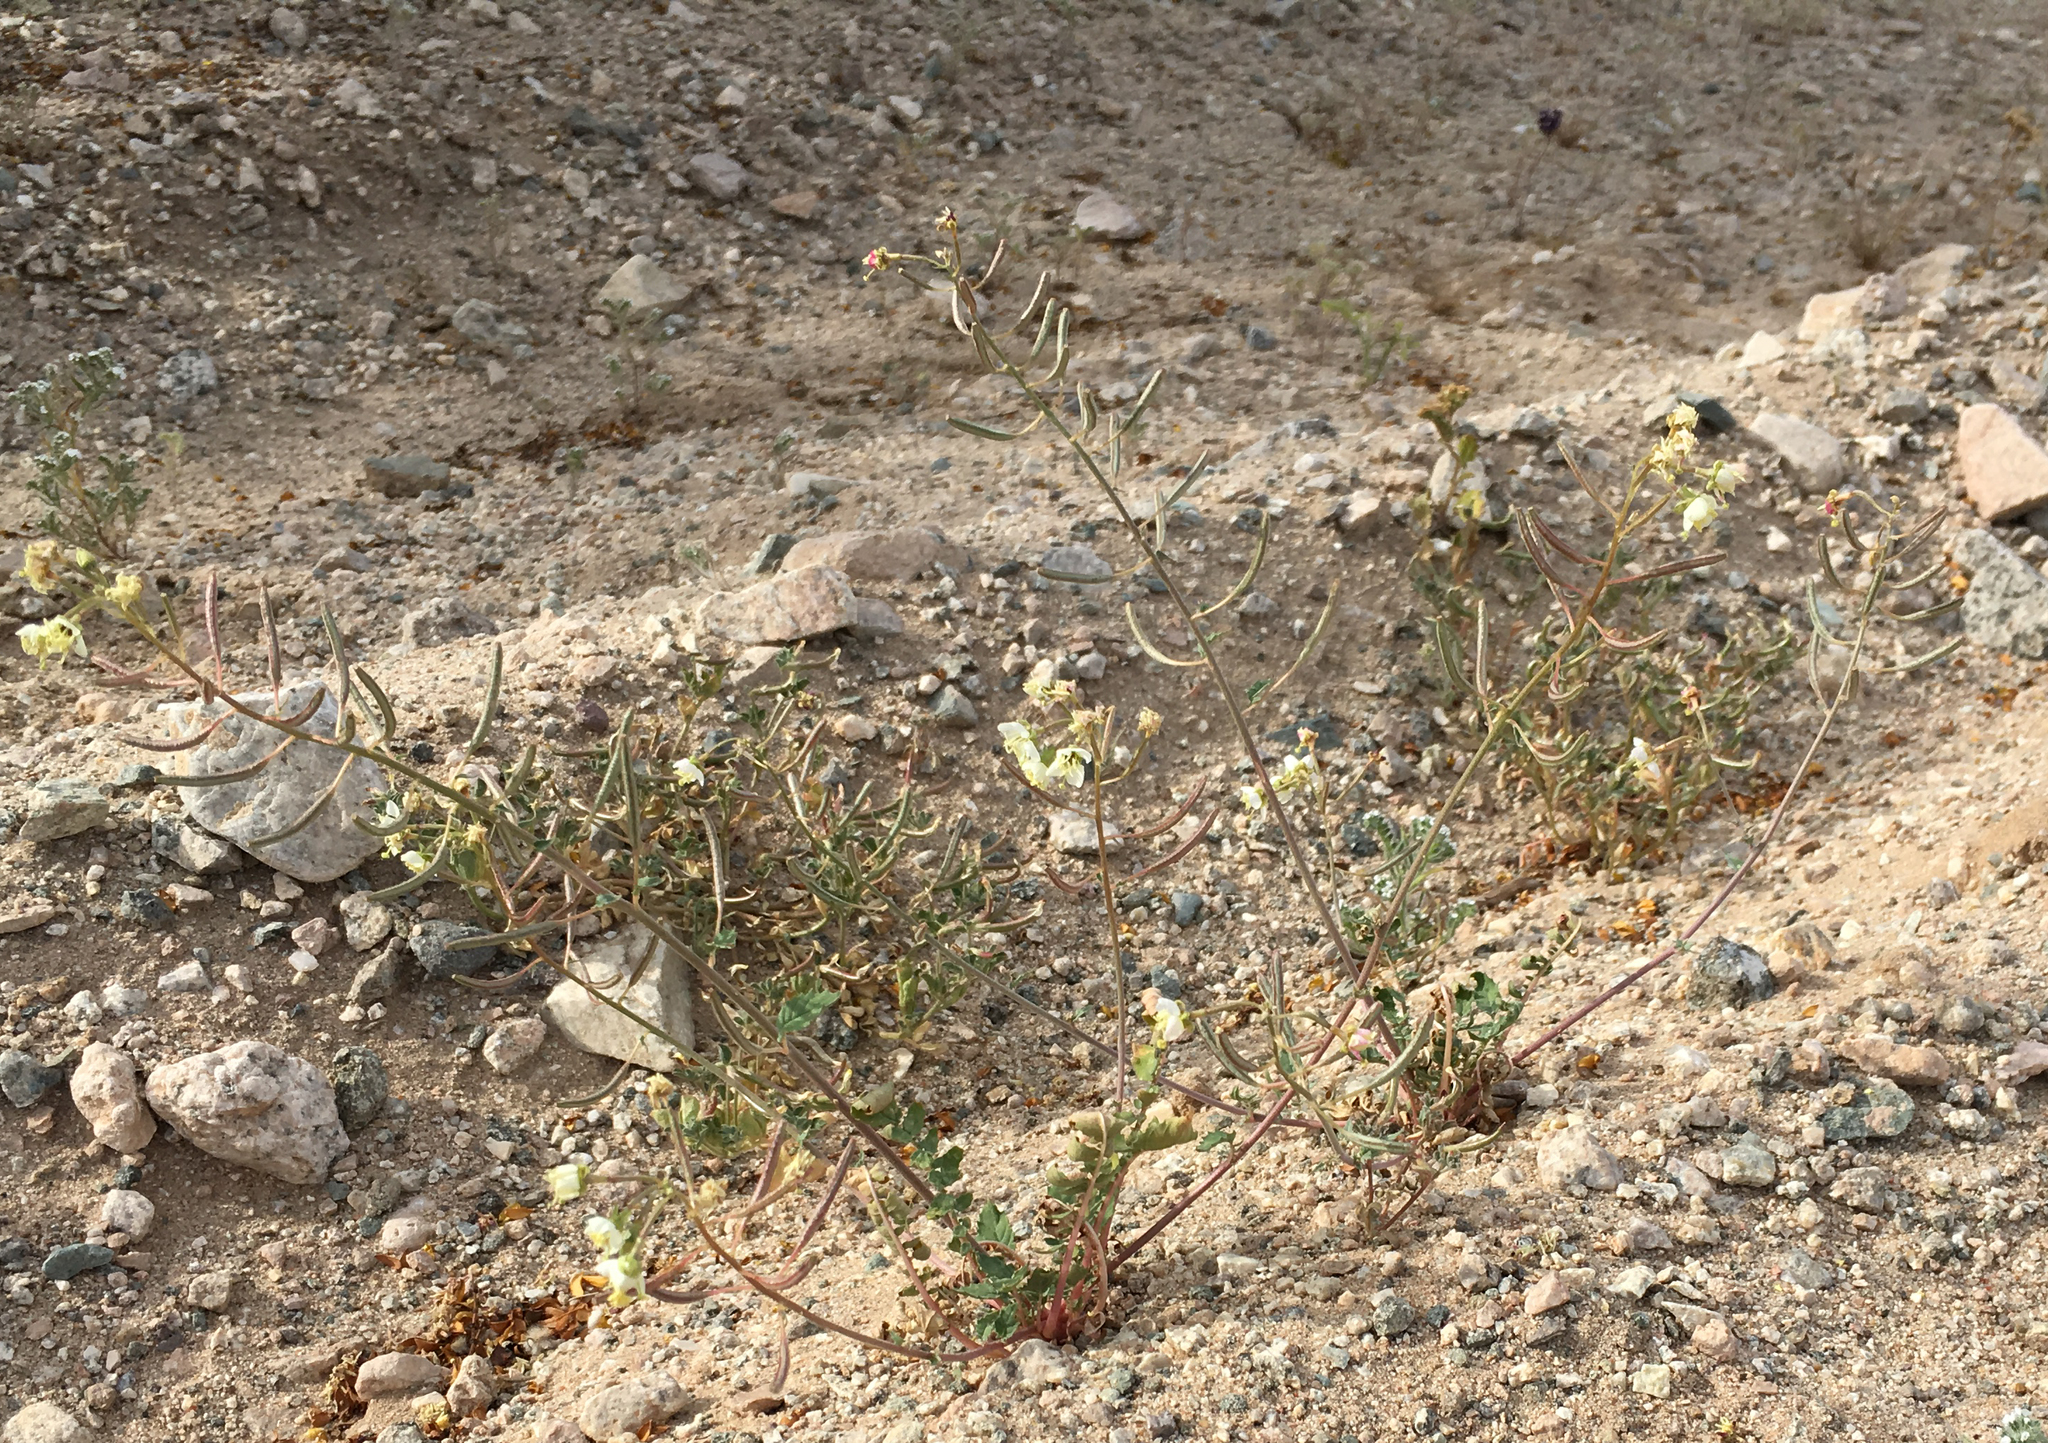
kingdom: Plantae
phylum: Tracheophyta
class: Magnoliopsida
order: Myrtales
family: Onagraceae
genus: Chylismia
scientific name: Chylismia claviformis
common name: Browneyes
